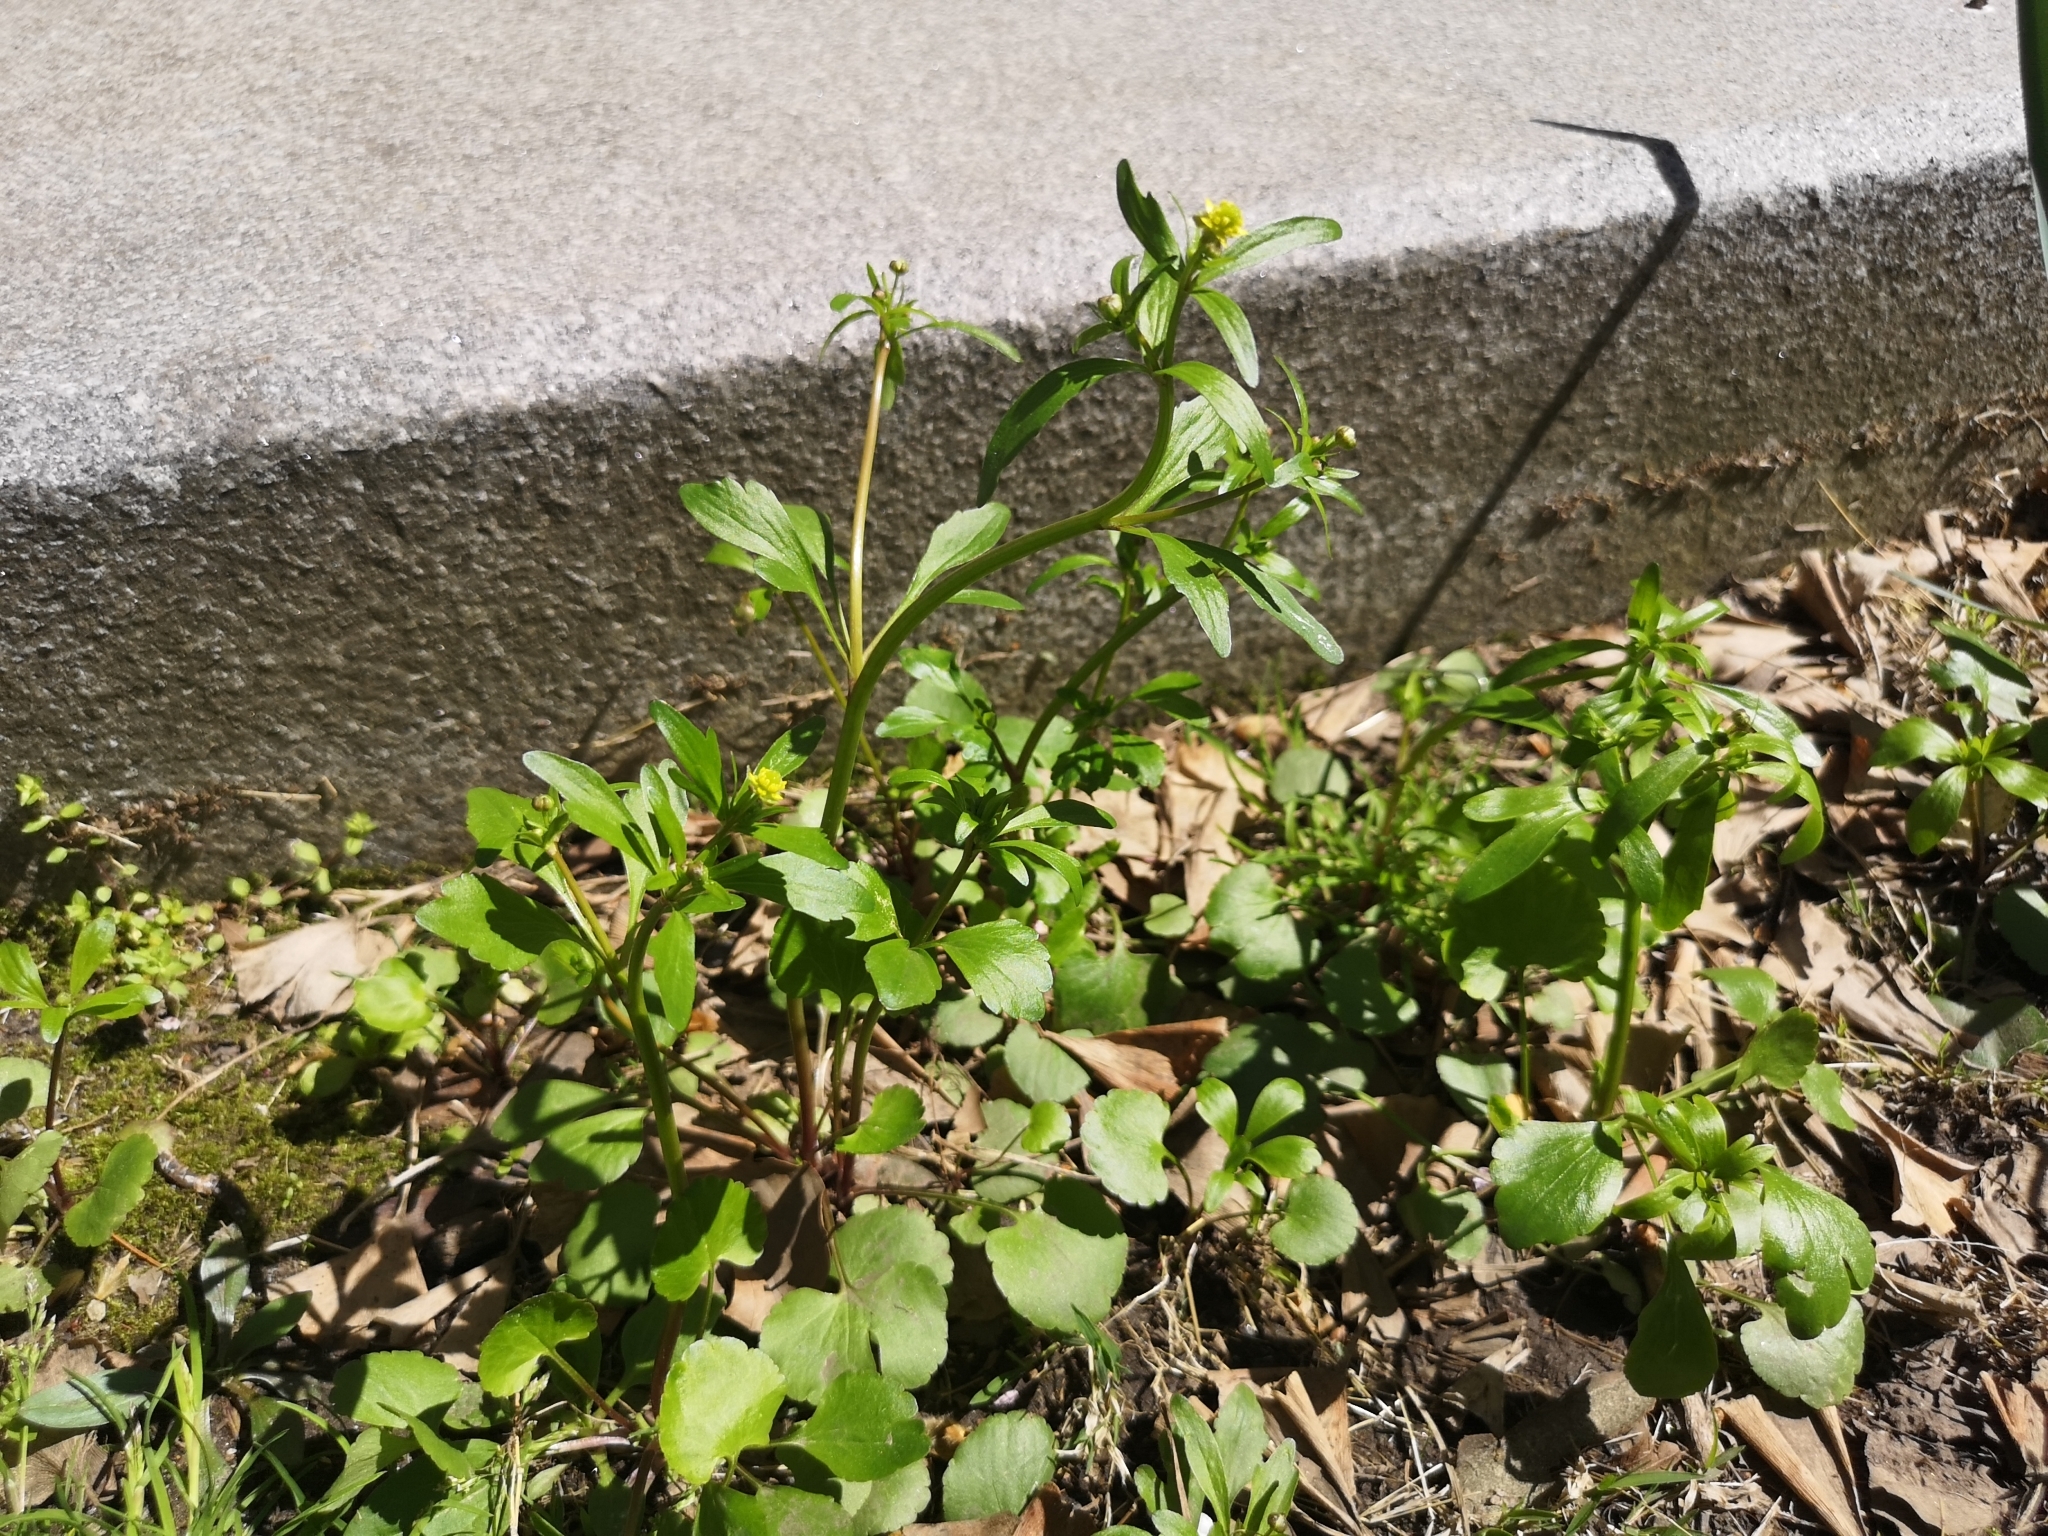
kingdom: Plantae
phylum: Tracheophyta
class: Magnoliopsida
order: Ranunculales
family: Ranunculaceae
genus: Ranunculus
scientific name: Ranunculus abortivus
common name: Early wood buttercup
